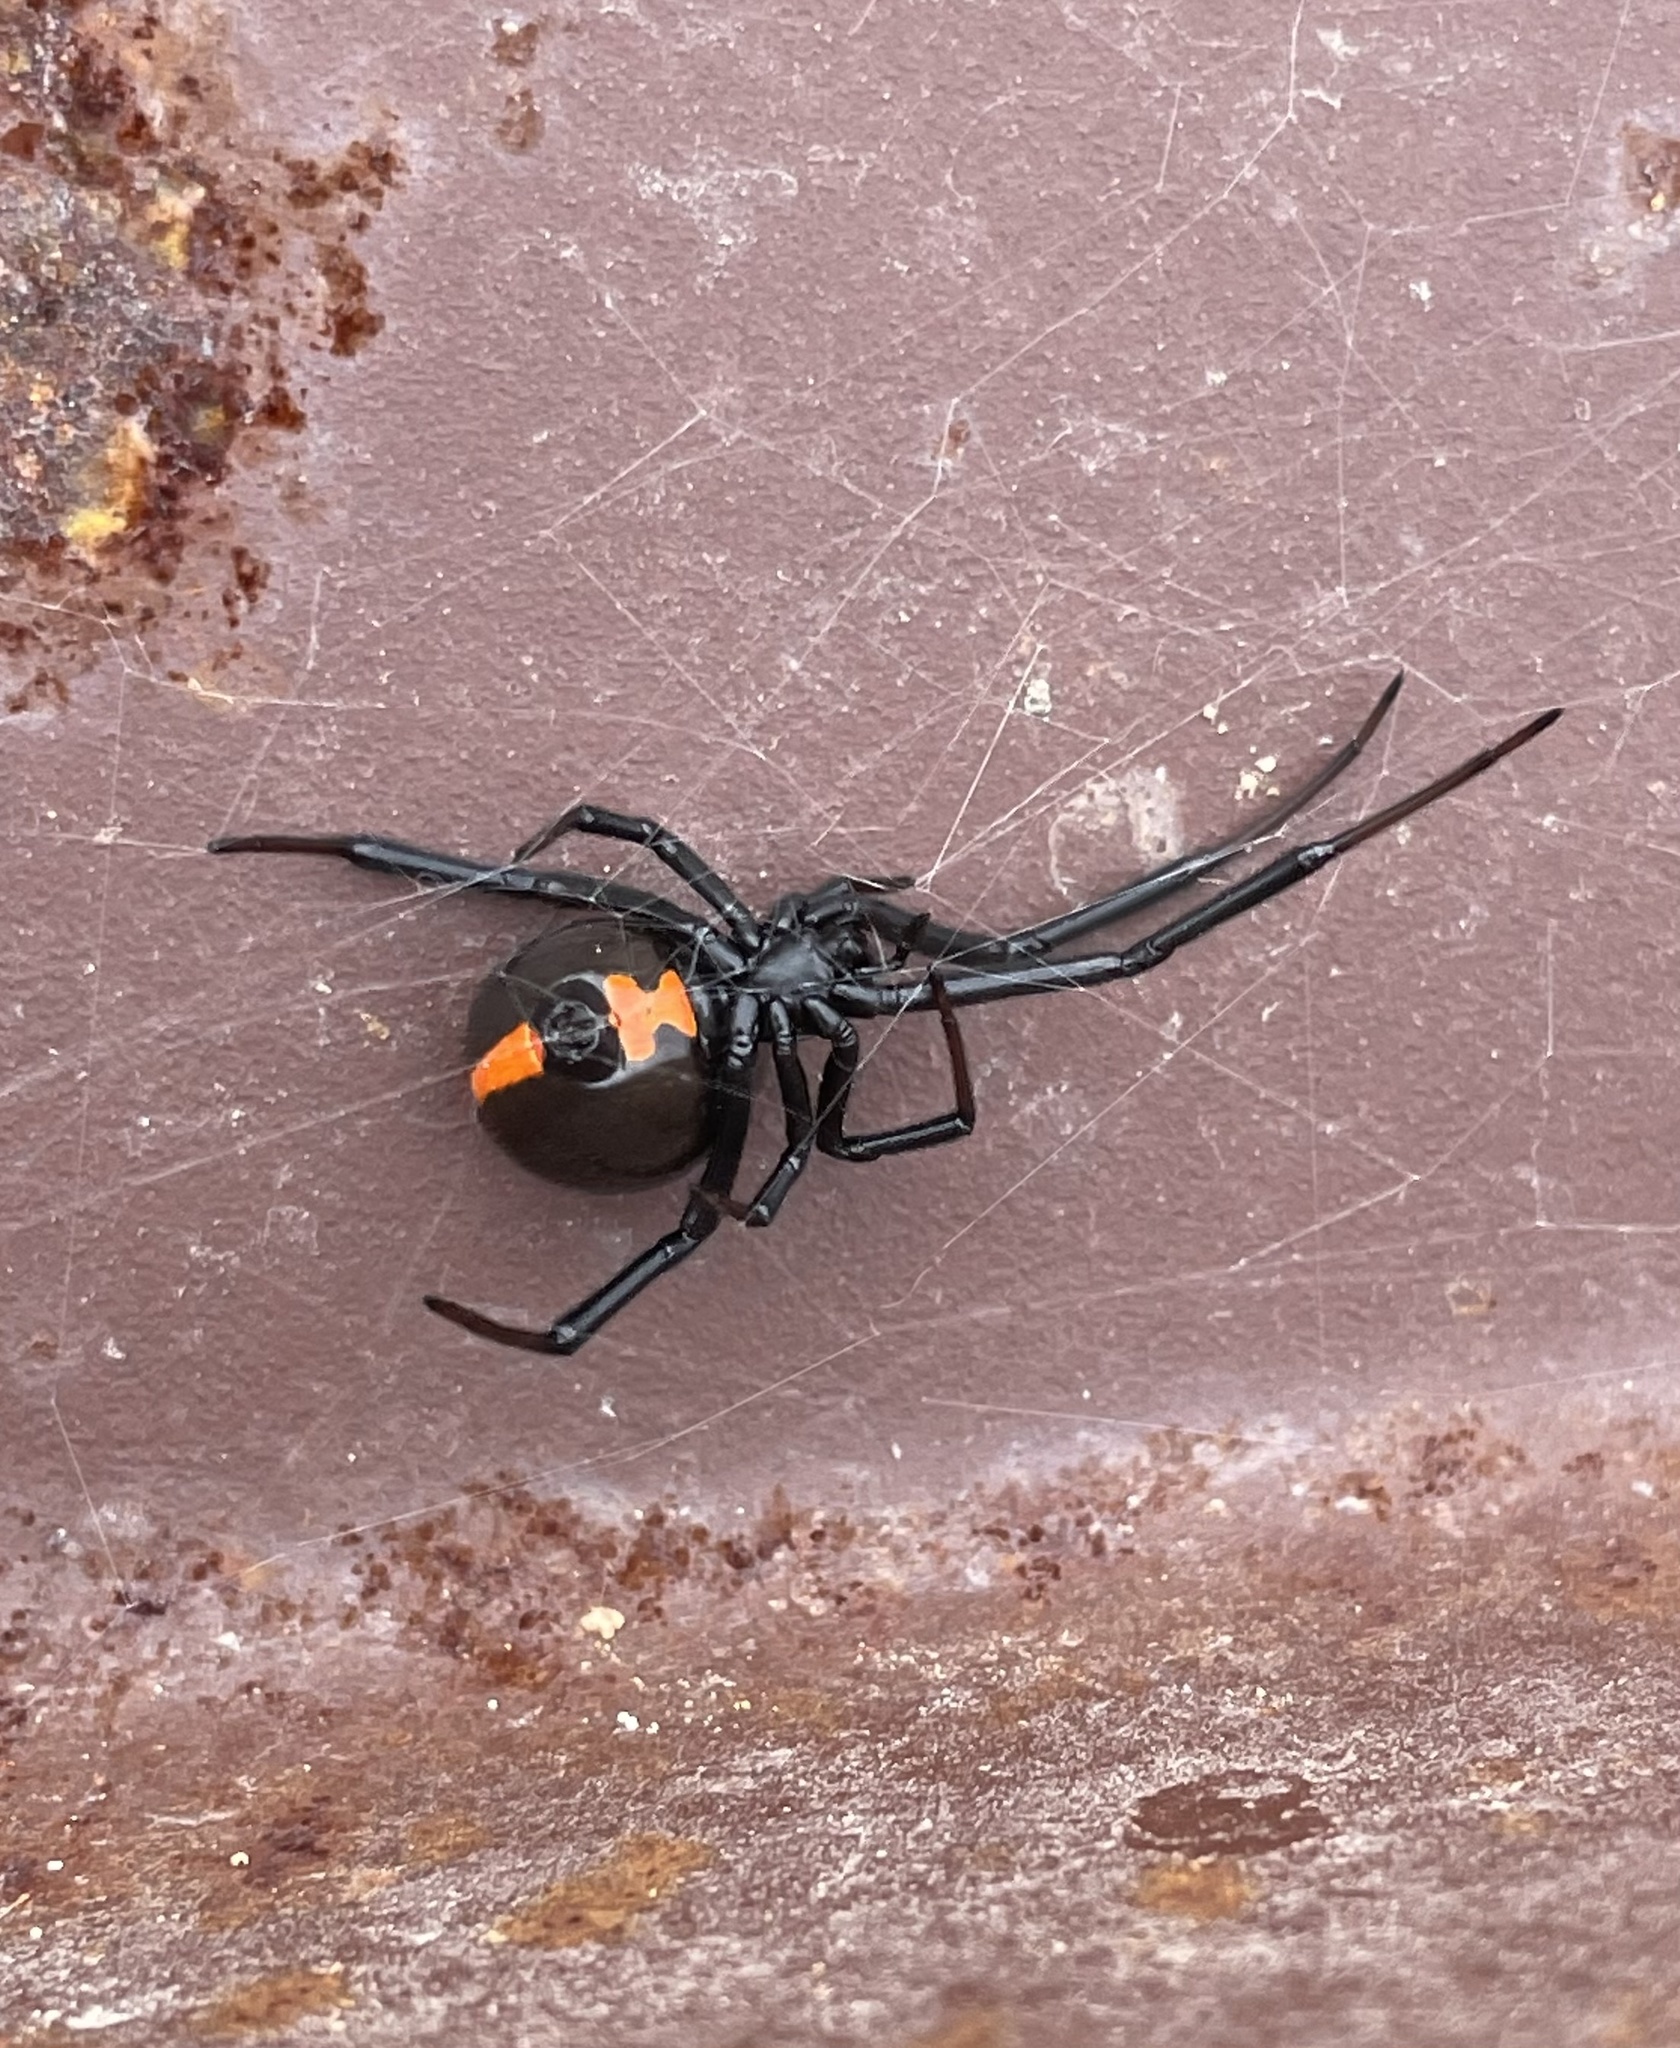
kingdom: Animalia
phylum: Arthropoda
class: Arachnida
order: Araneae
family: Theridiidae
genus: Latrodectus
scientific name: Latrodectus mactans
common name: Cobweb spiders
